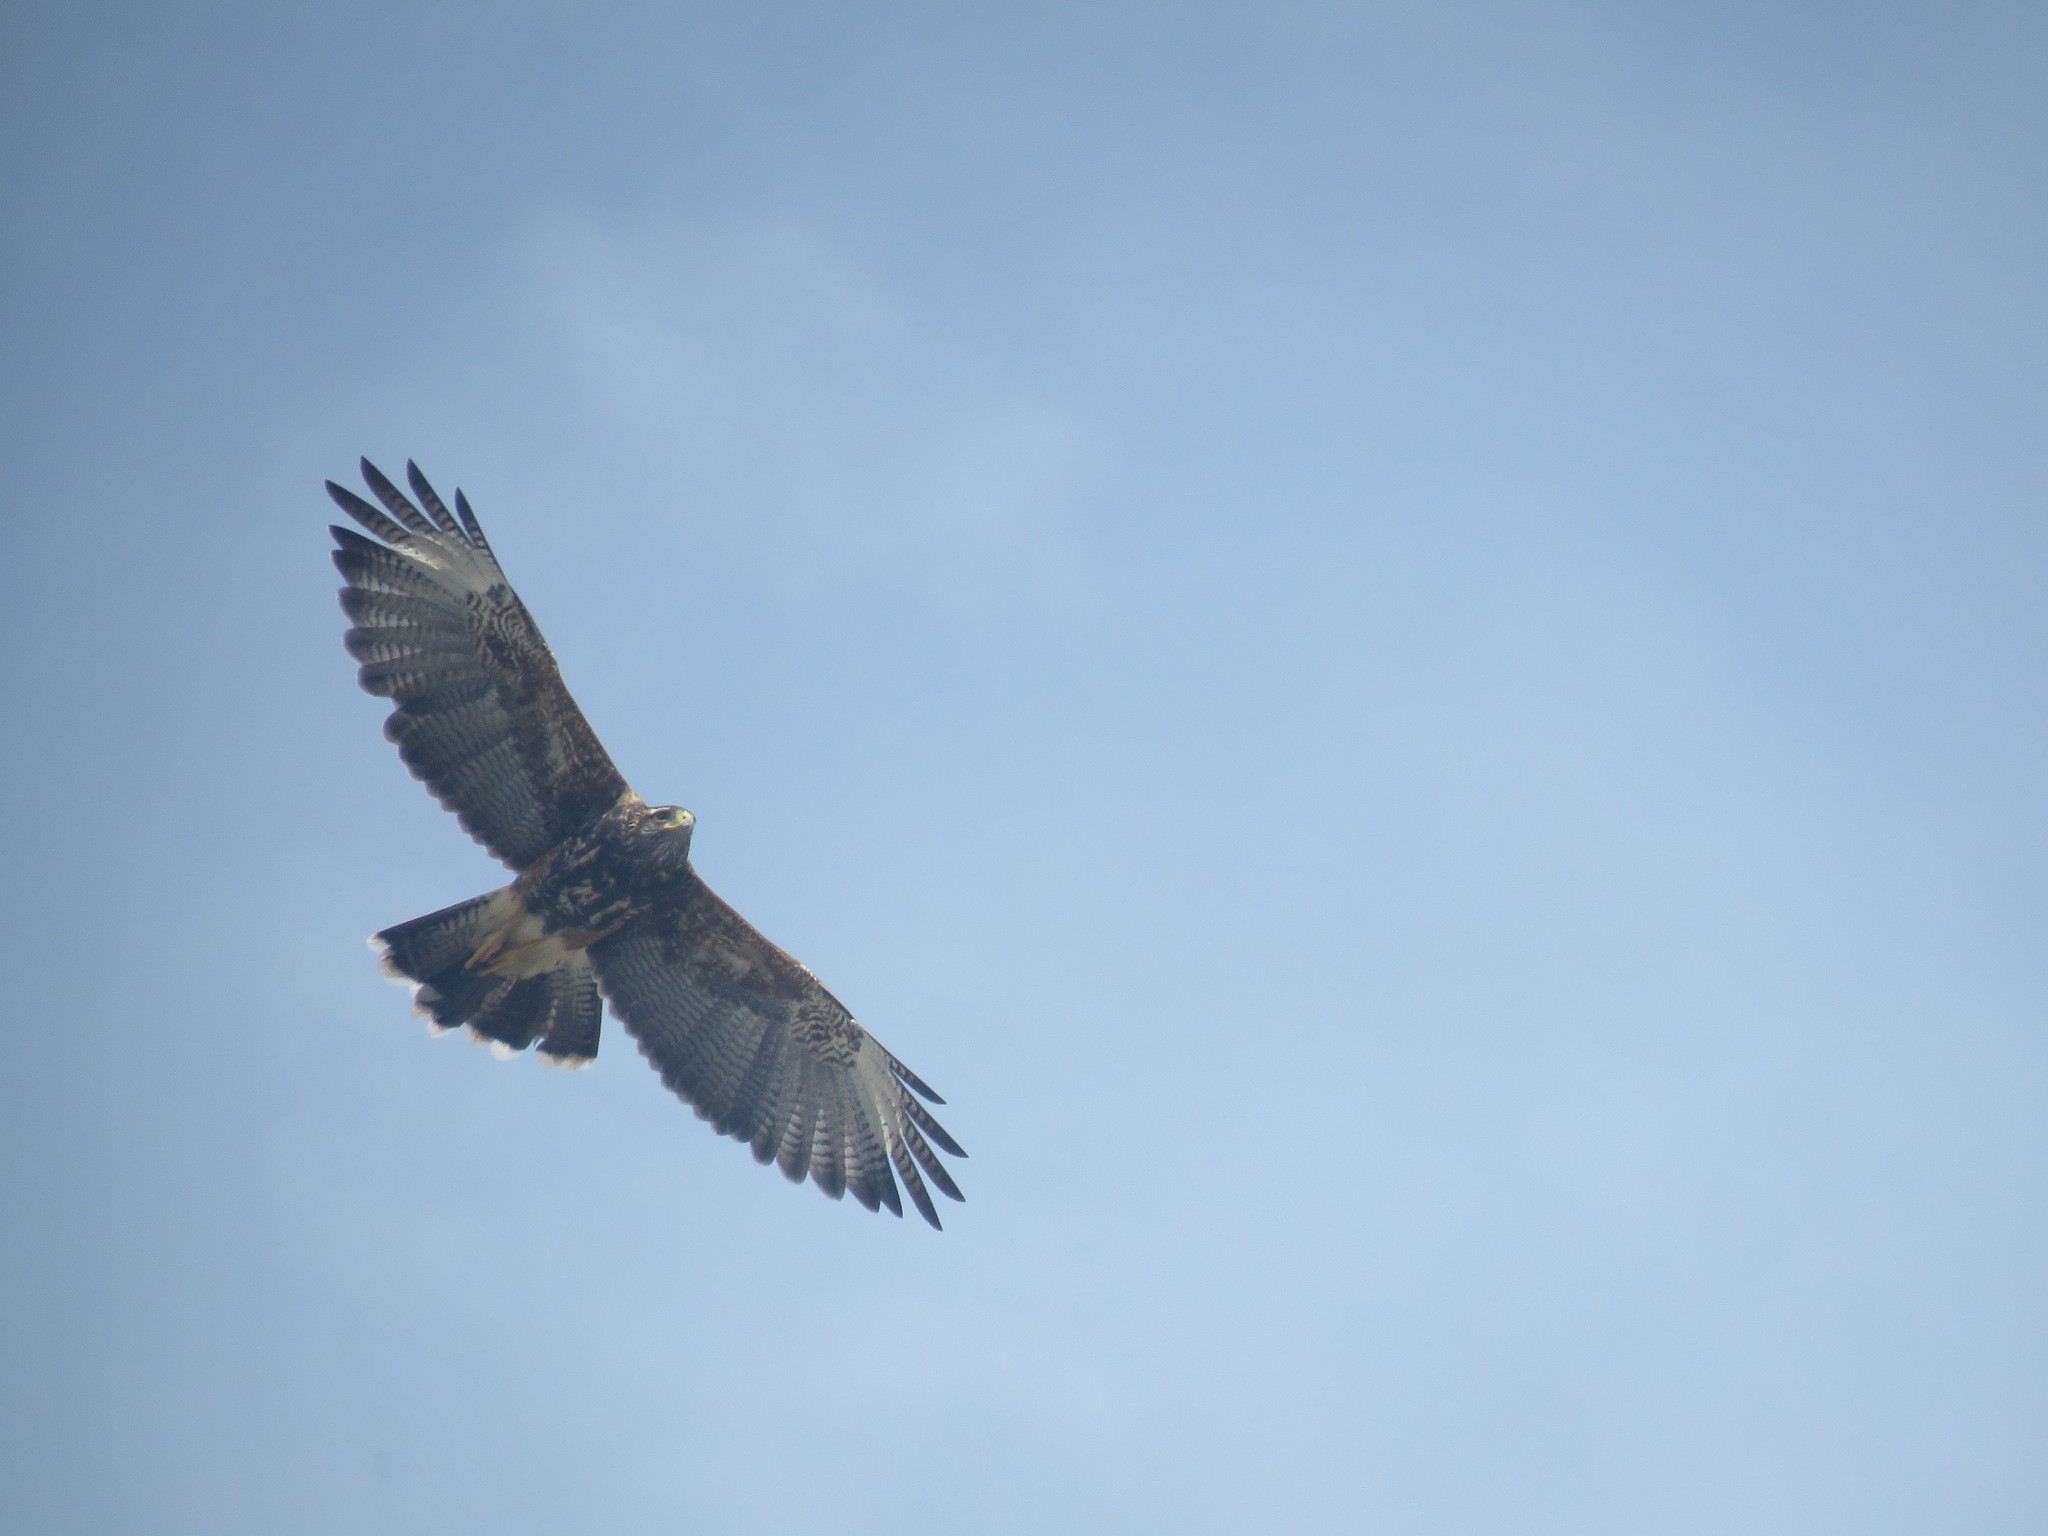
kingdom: Animalia
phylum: Chordata
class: Aves
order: Accipitriformes
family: Accipitridae
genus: Parabuteo
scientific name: Parabuteo unicinctus
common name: Harris's hawk
